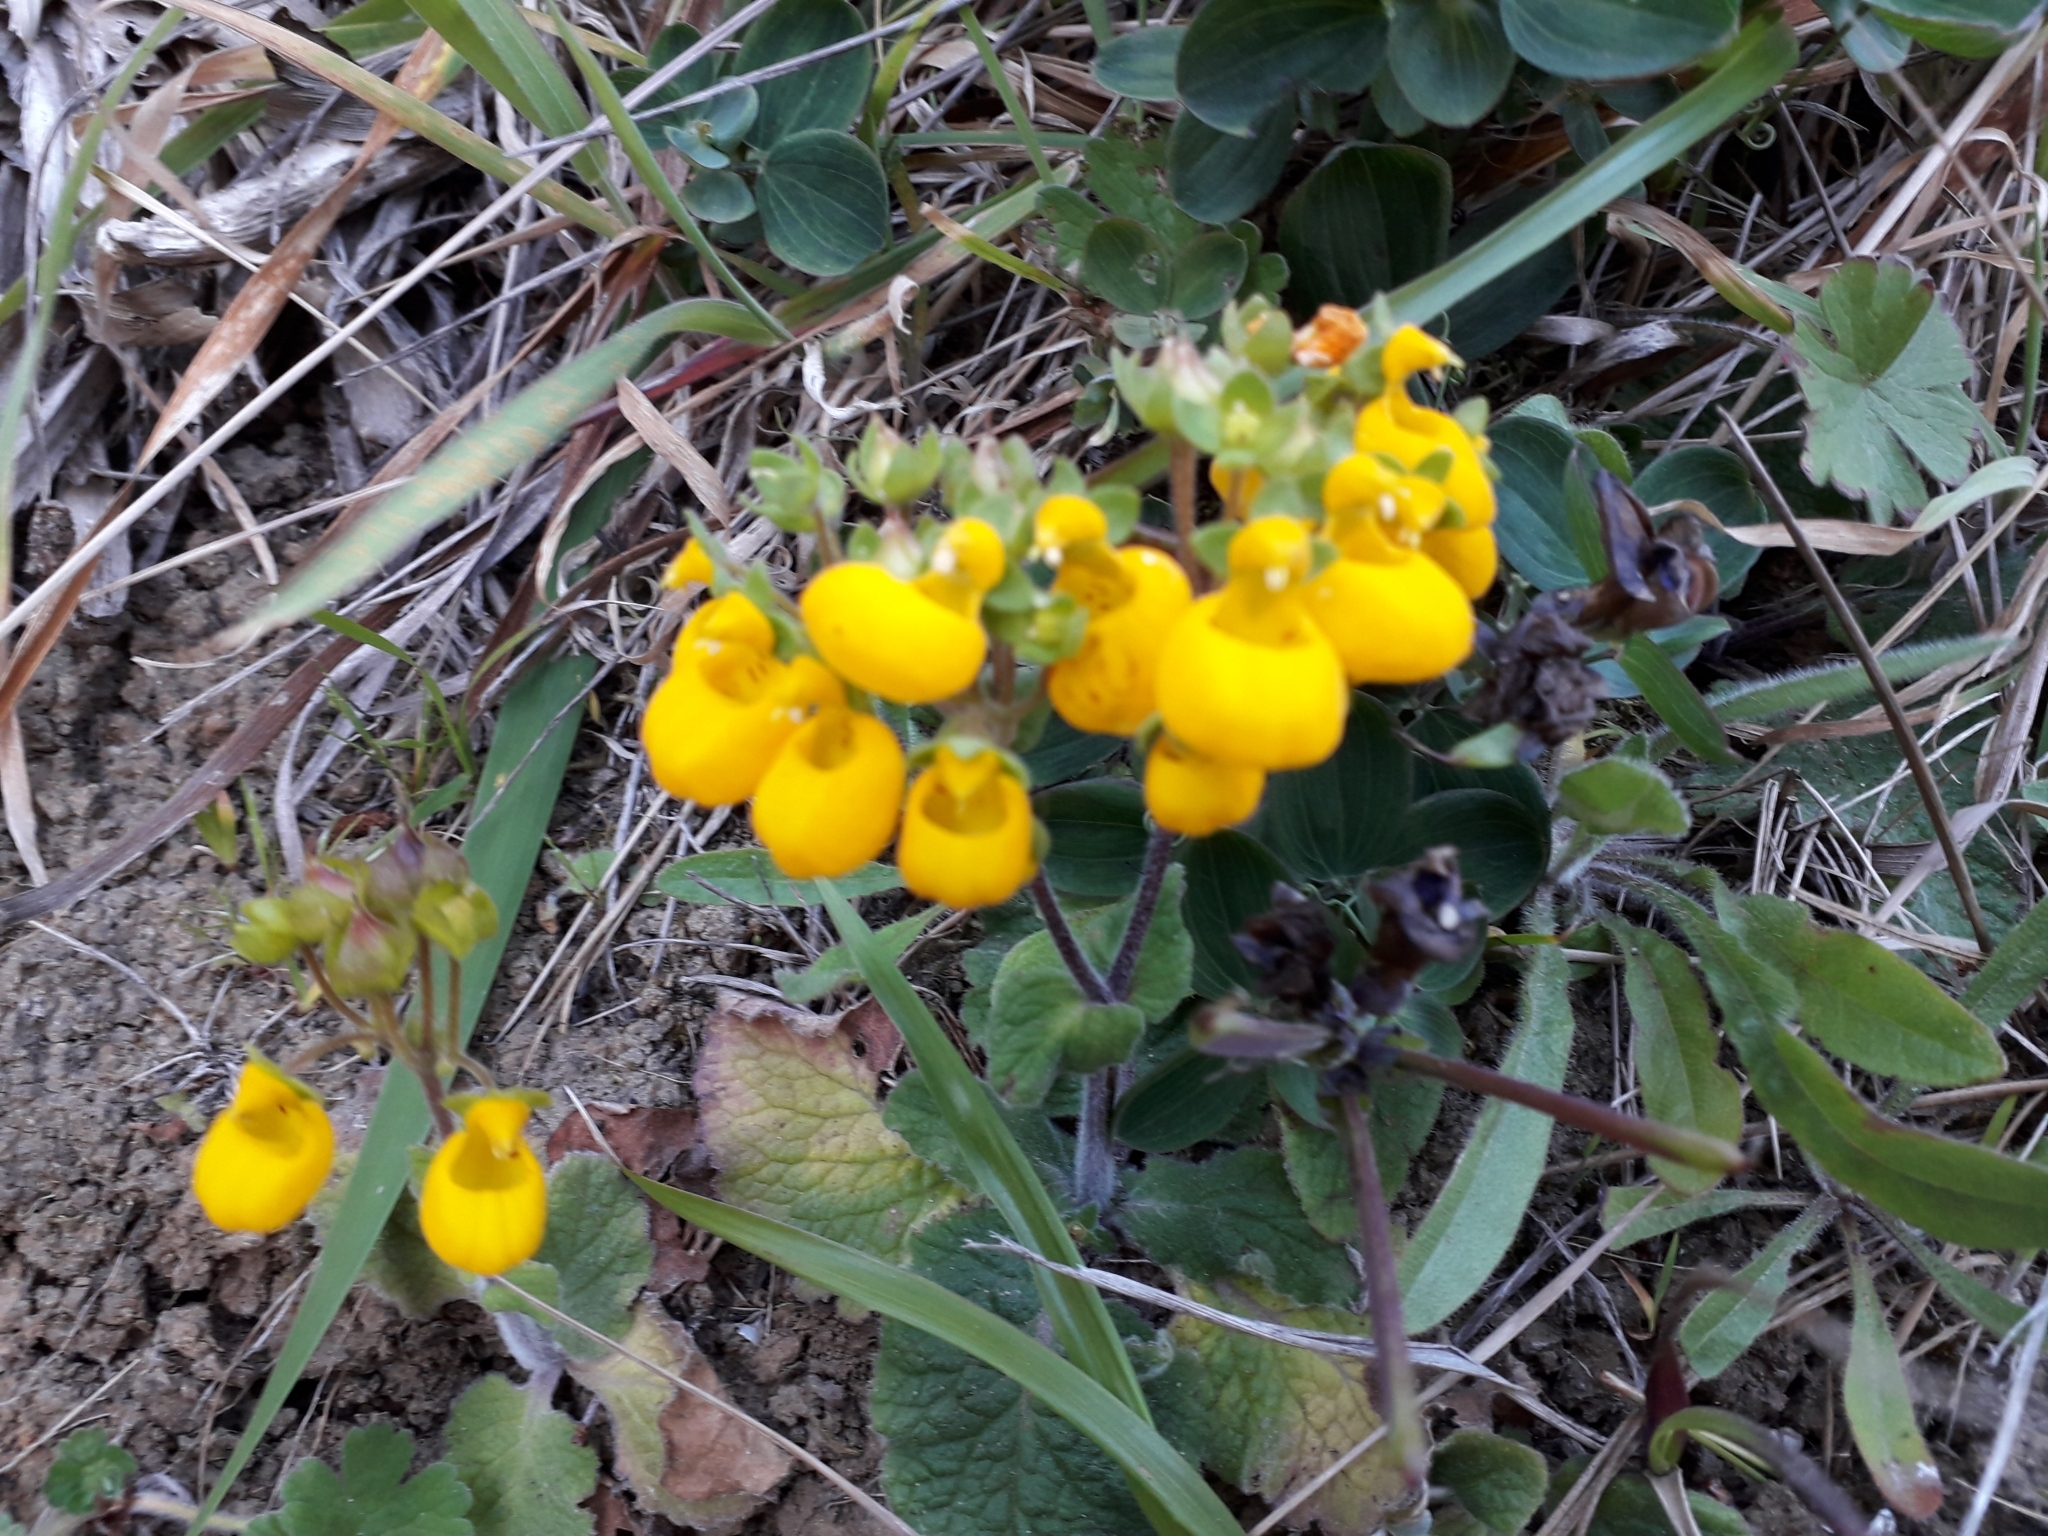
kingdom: Plantae
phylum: Tracheophyta
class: Magnoliopsida
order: Lamiales
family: Calceolariaceae
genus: Calceolaria
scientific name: Calceolaria corymbosa
